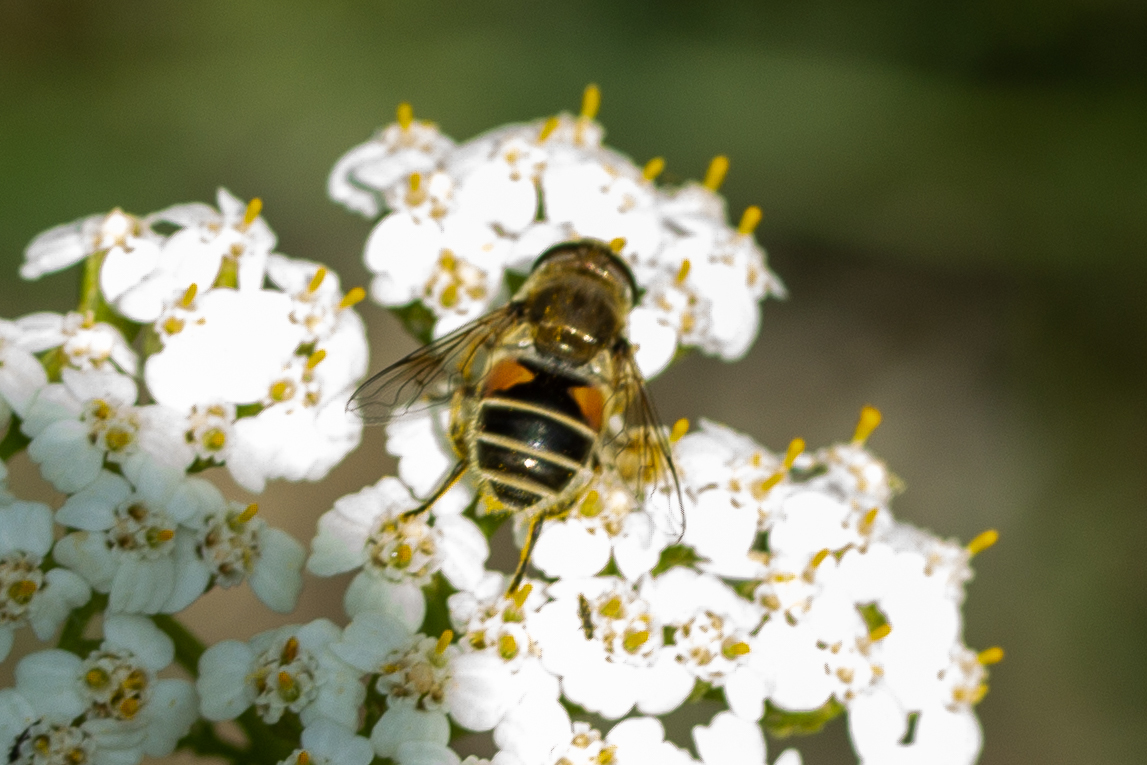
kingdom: Animalia
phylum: Arthropoda
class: Insecta
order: Diptera
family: Syrphidae
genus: Eristalis
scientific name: Eristalis arbustorum
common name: Hover fly
